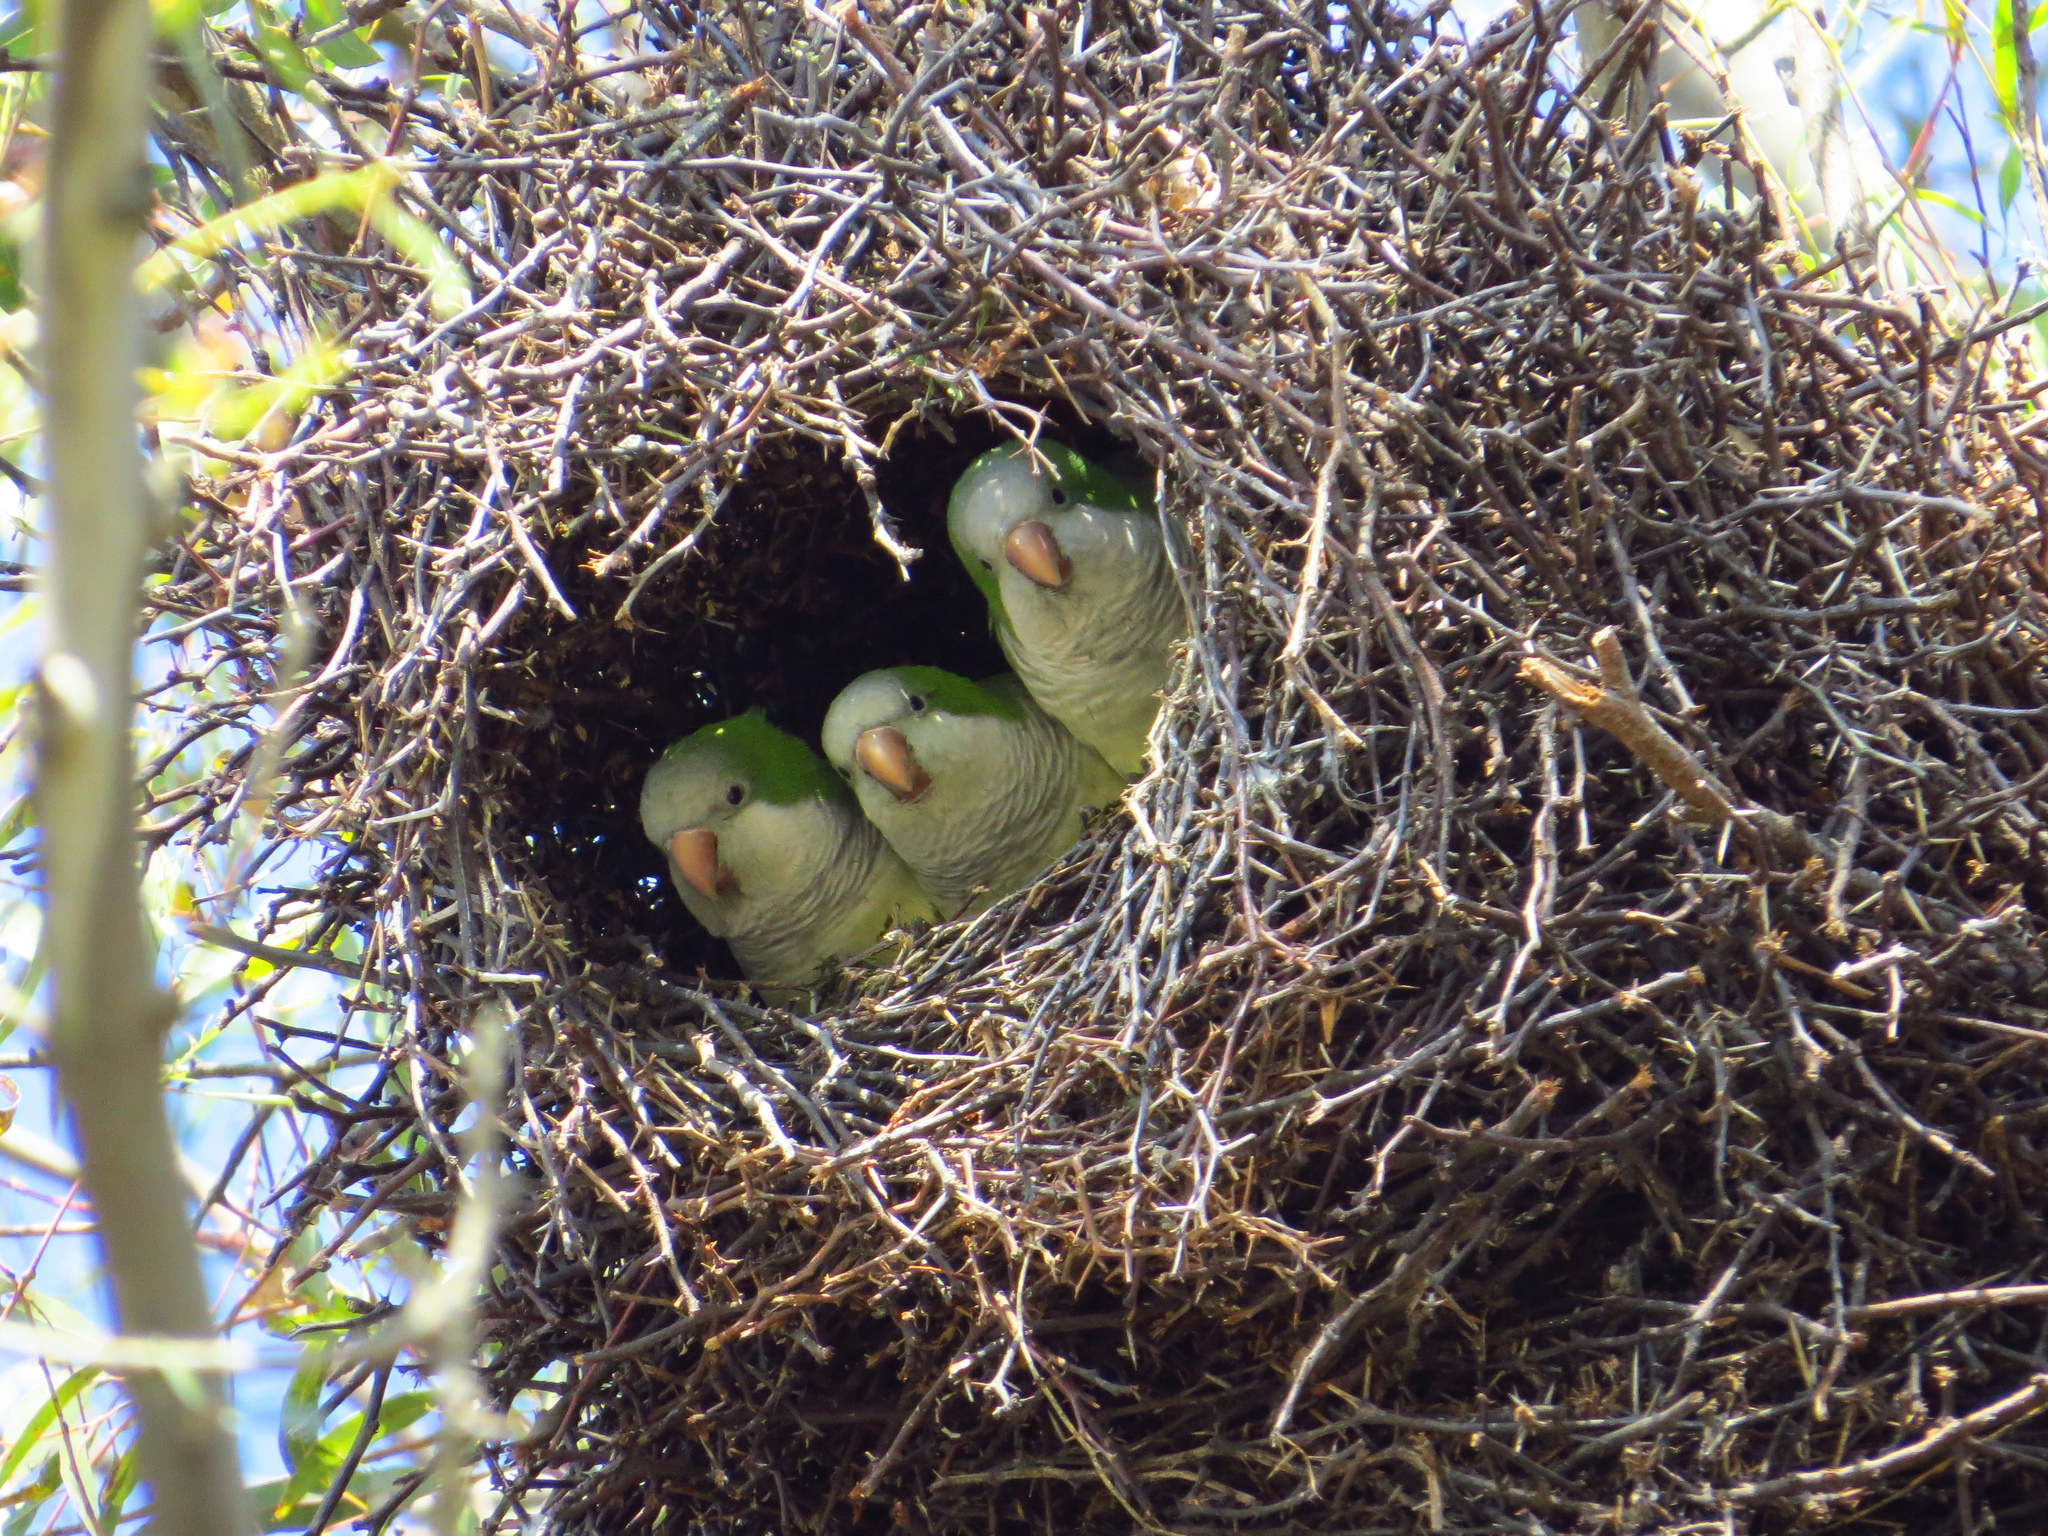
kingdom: Animalia
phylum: Chordata
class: Aves
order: Psittaciformes
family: Psittacidae
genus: Myiopsitta
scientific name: Myiopsitta monachus
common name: Monk parakeet
